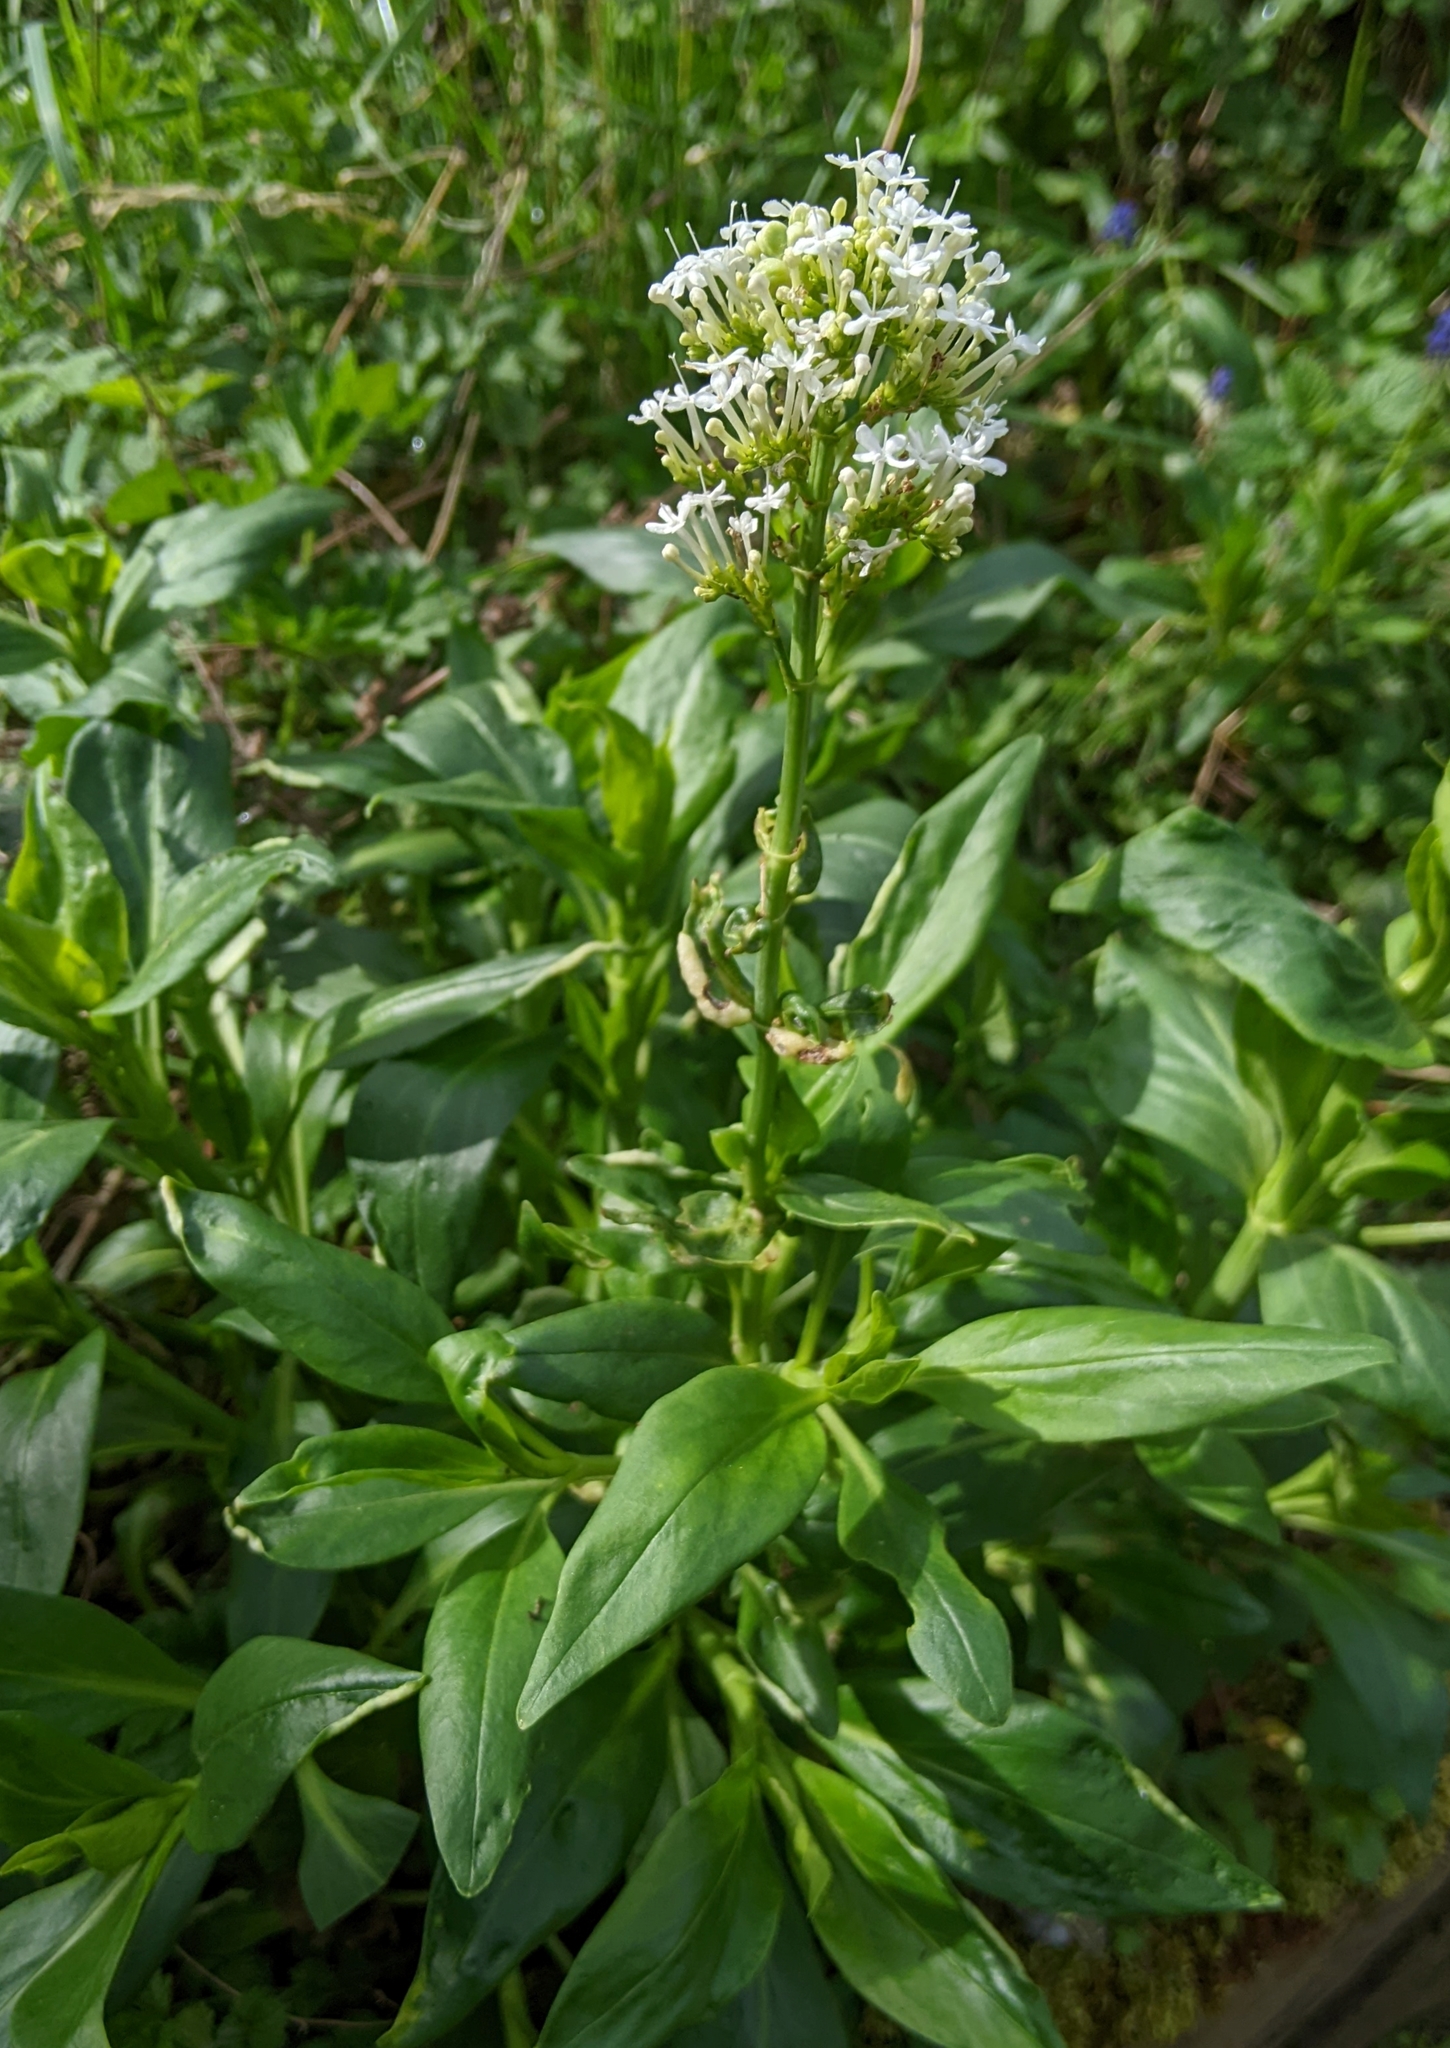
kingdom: Plantae
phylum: Tracheophyta
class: Magnoliopsida
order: Dipsacales
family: Caprifoliaceae
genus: Centranthus
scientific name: Centranthus ruber
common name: Red valerian
